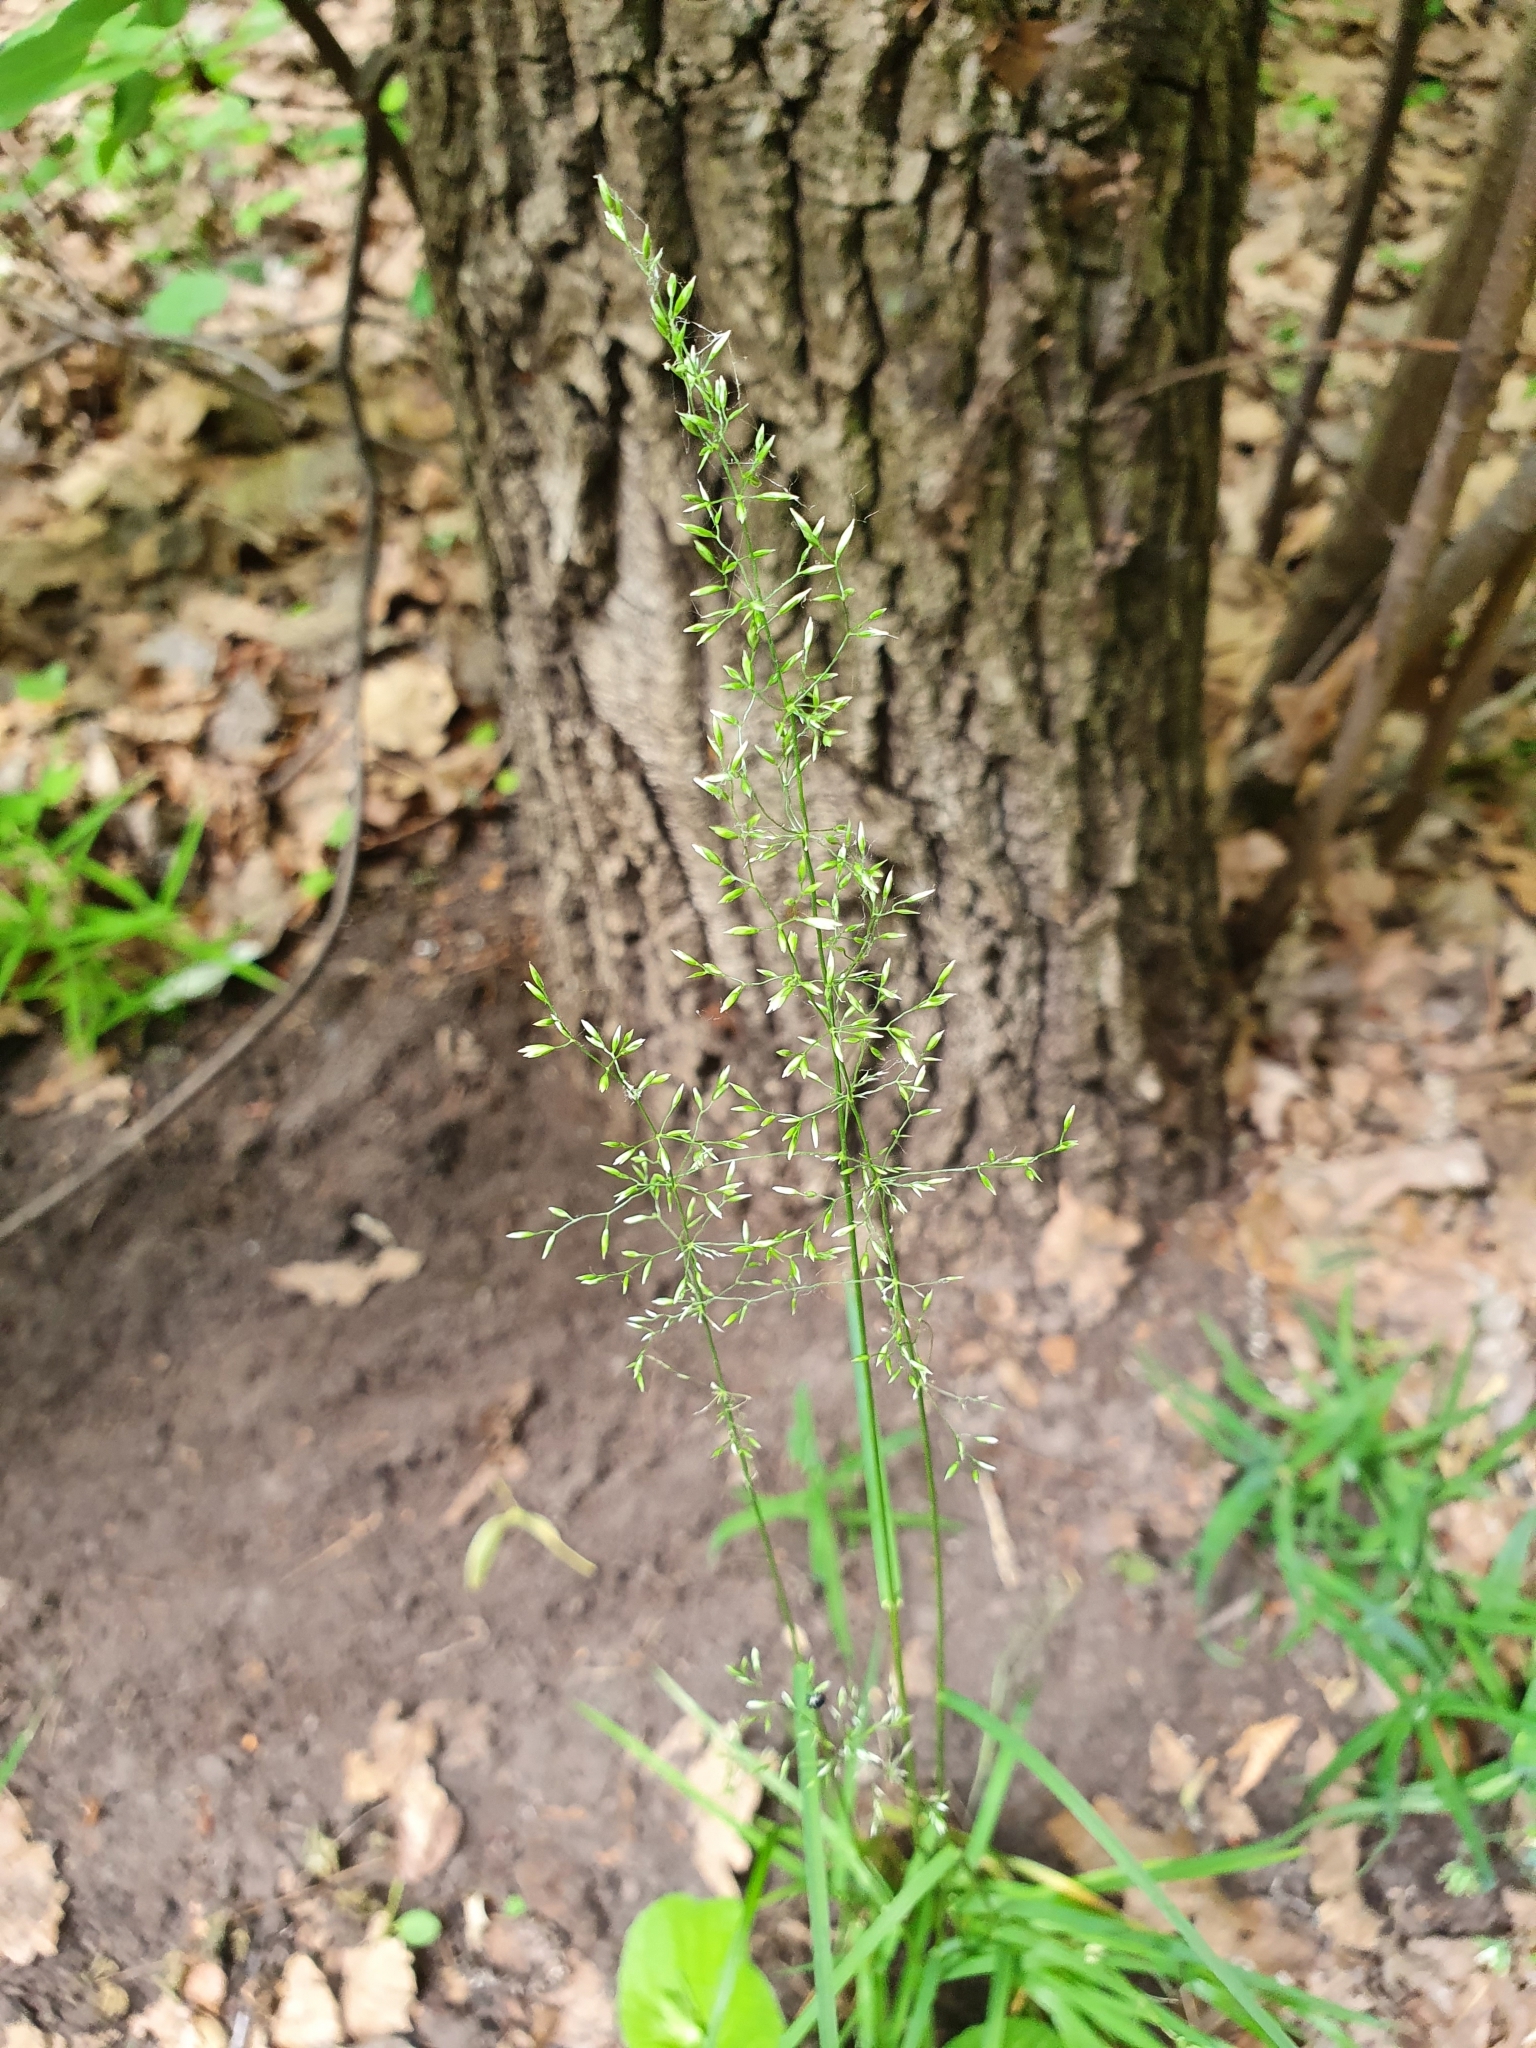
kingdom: Plantae
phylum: Tracheophyta
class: Liliopsida
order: Poales
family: Poaceae
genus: Poa
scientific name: Poa nemoralis
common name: Wood bluegrass
